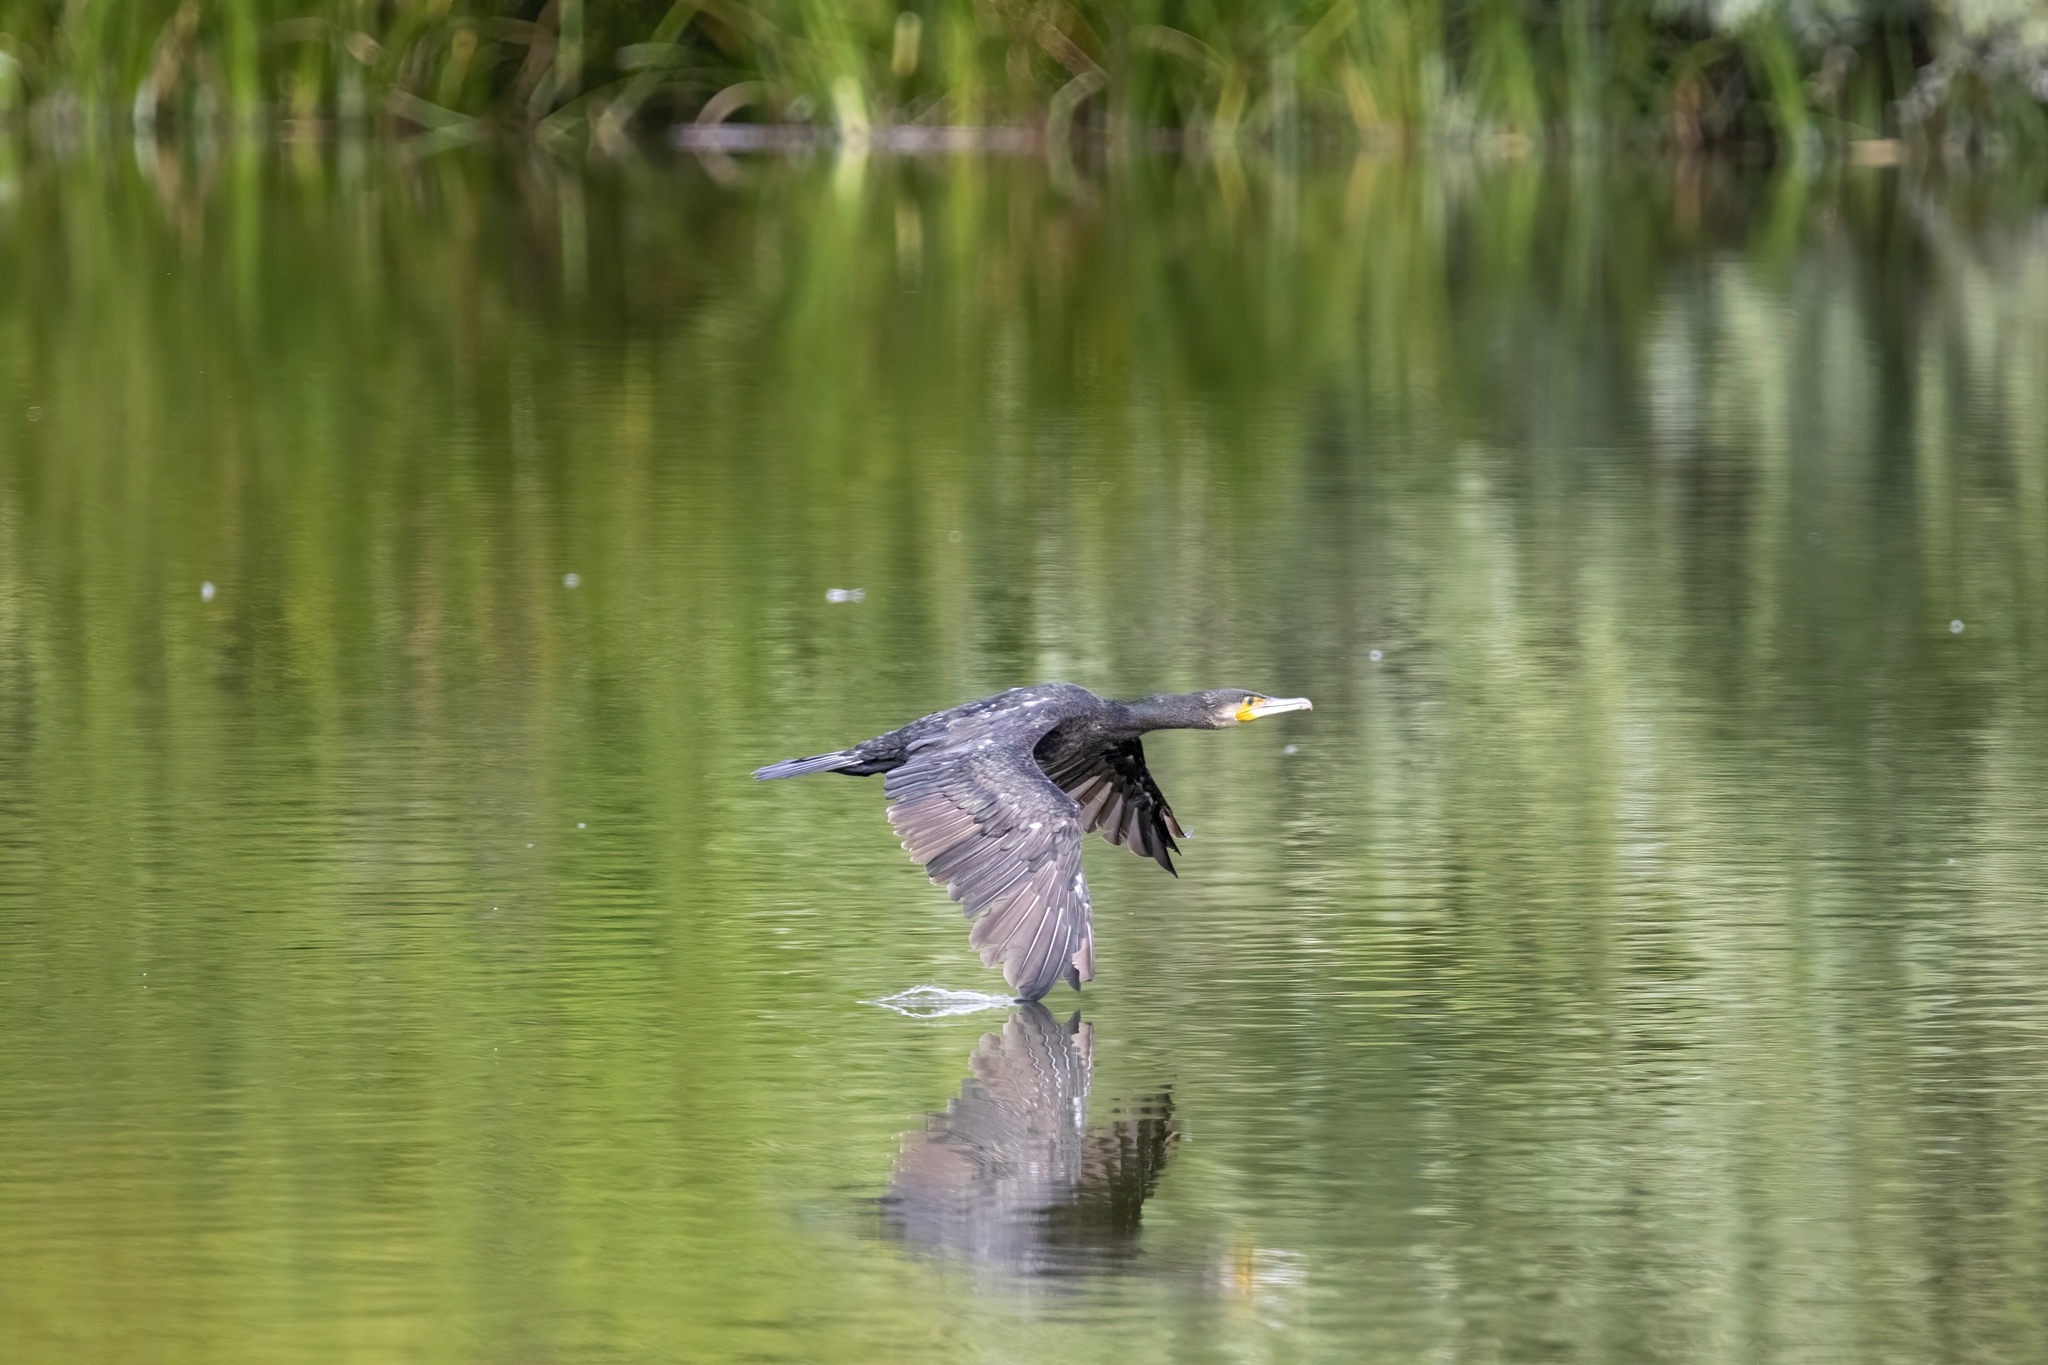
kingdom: Animalia
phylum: Chordata
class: Aves
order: Suliformes
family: Phalacrocoracidae
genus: Phalacrocorax
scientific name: Phalacrocorax carbo
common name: Great cormorant
